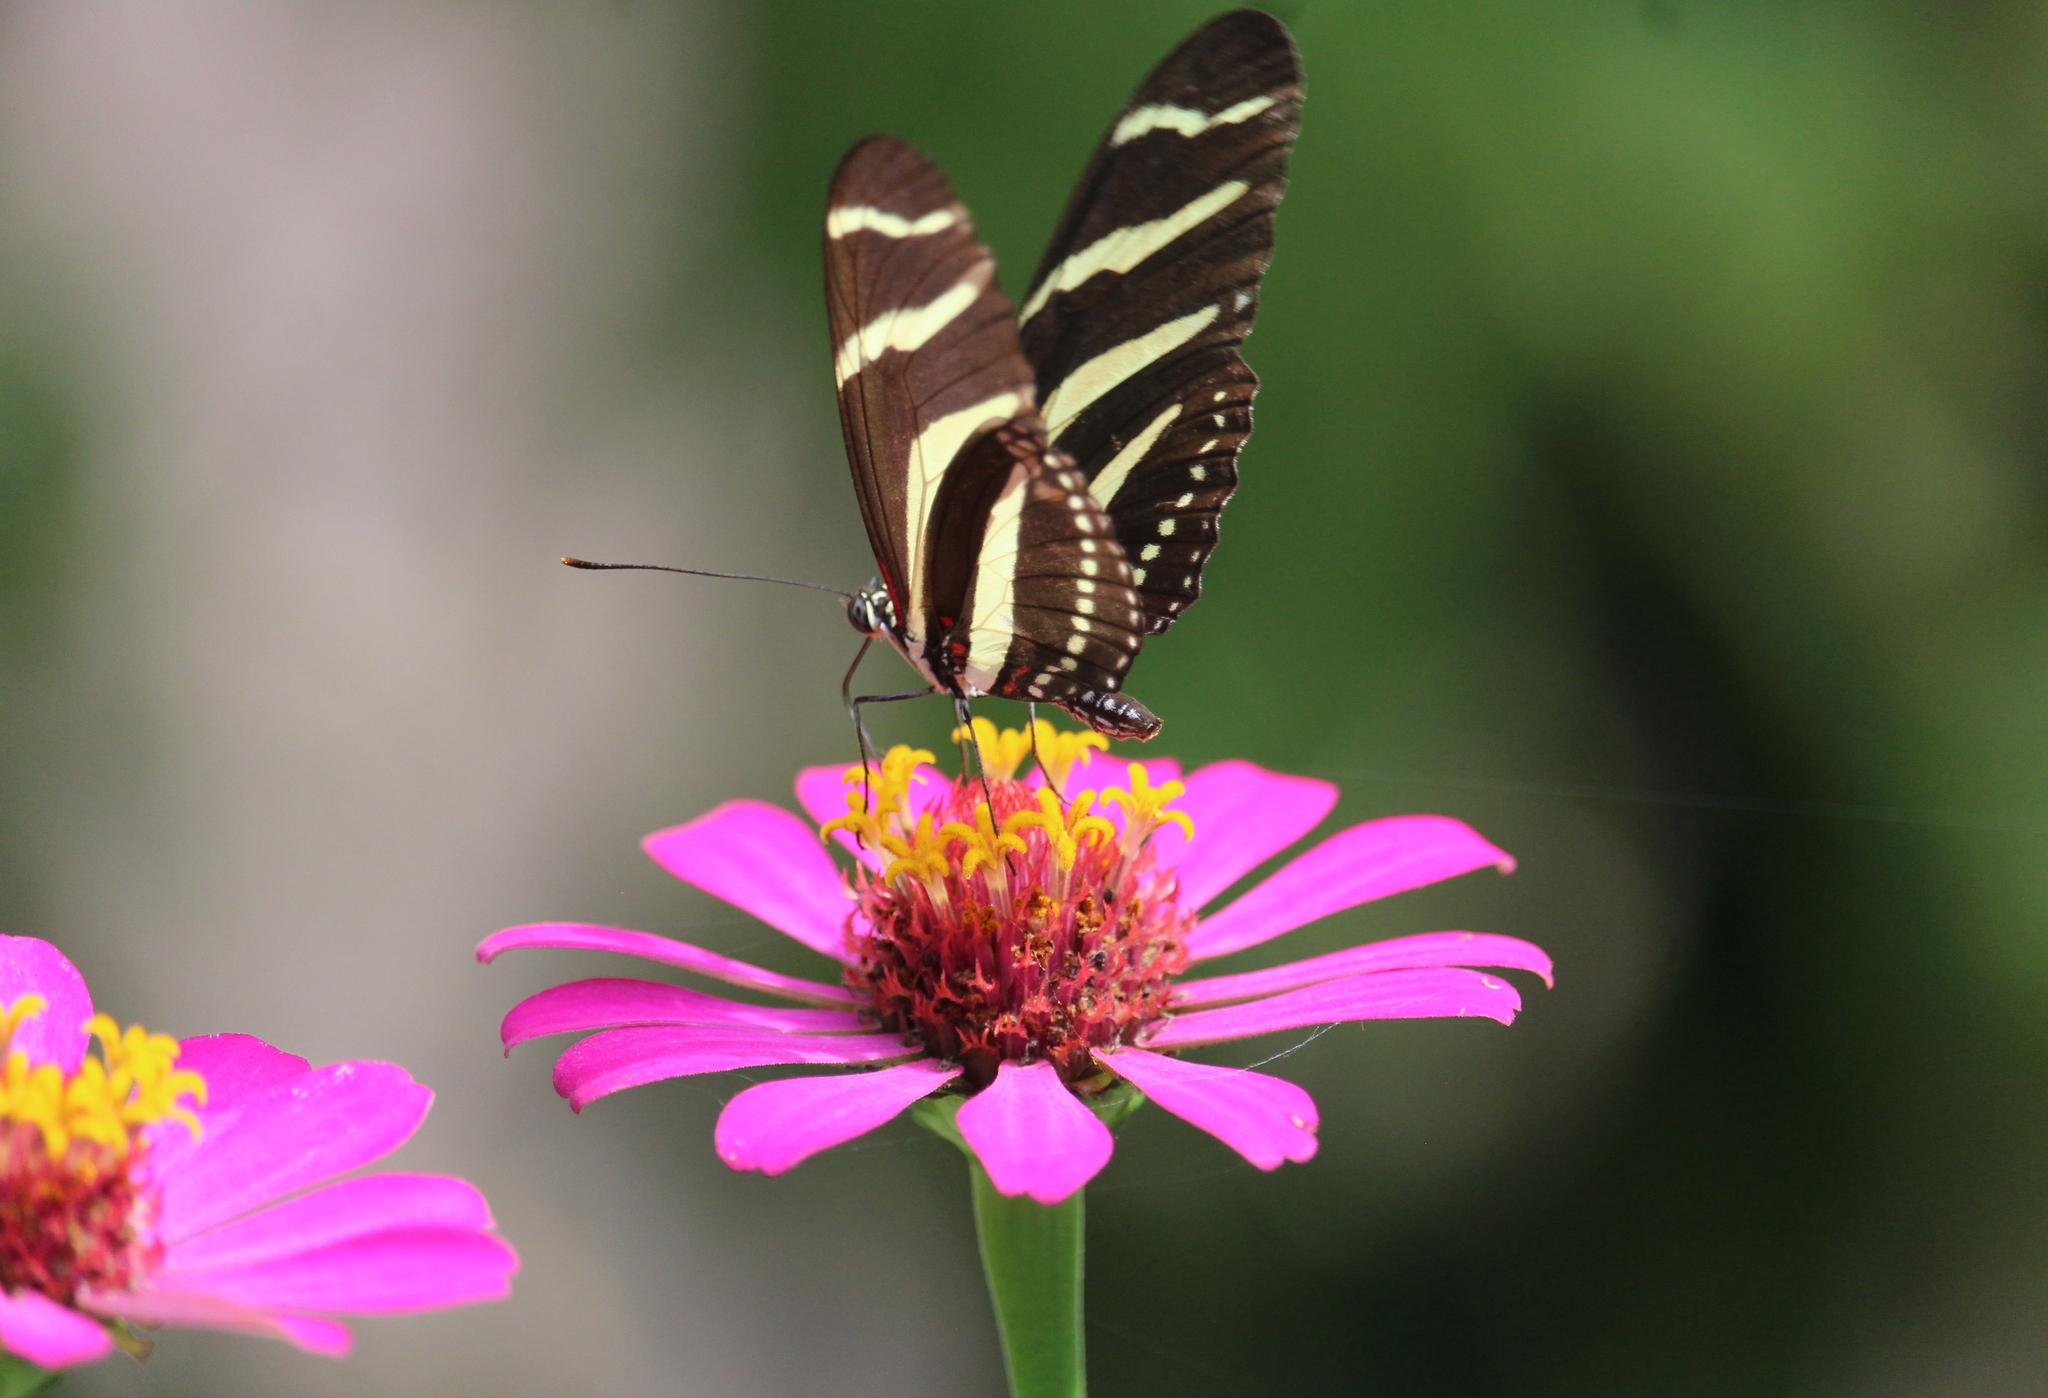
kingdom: Animalia
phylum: Arthropoda
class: Insecta
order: Lepidoptera
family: Nymphalidae
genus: Heliconius
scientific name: Heliconius charithonia
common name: Zebra long wing
